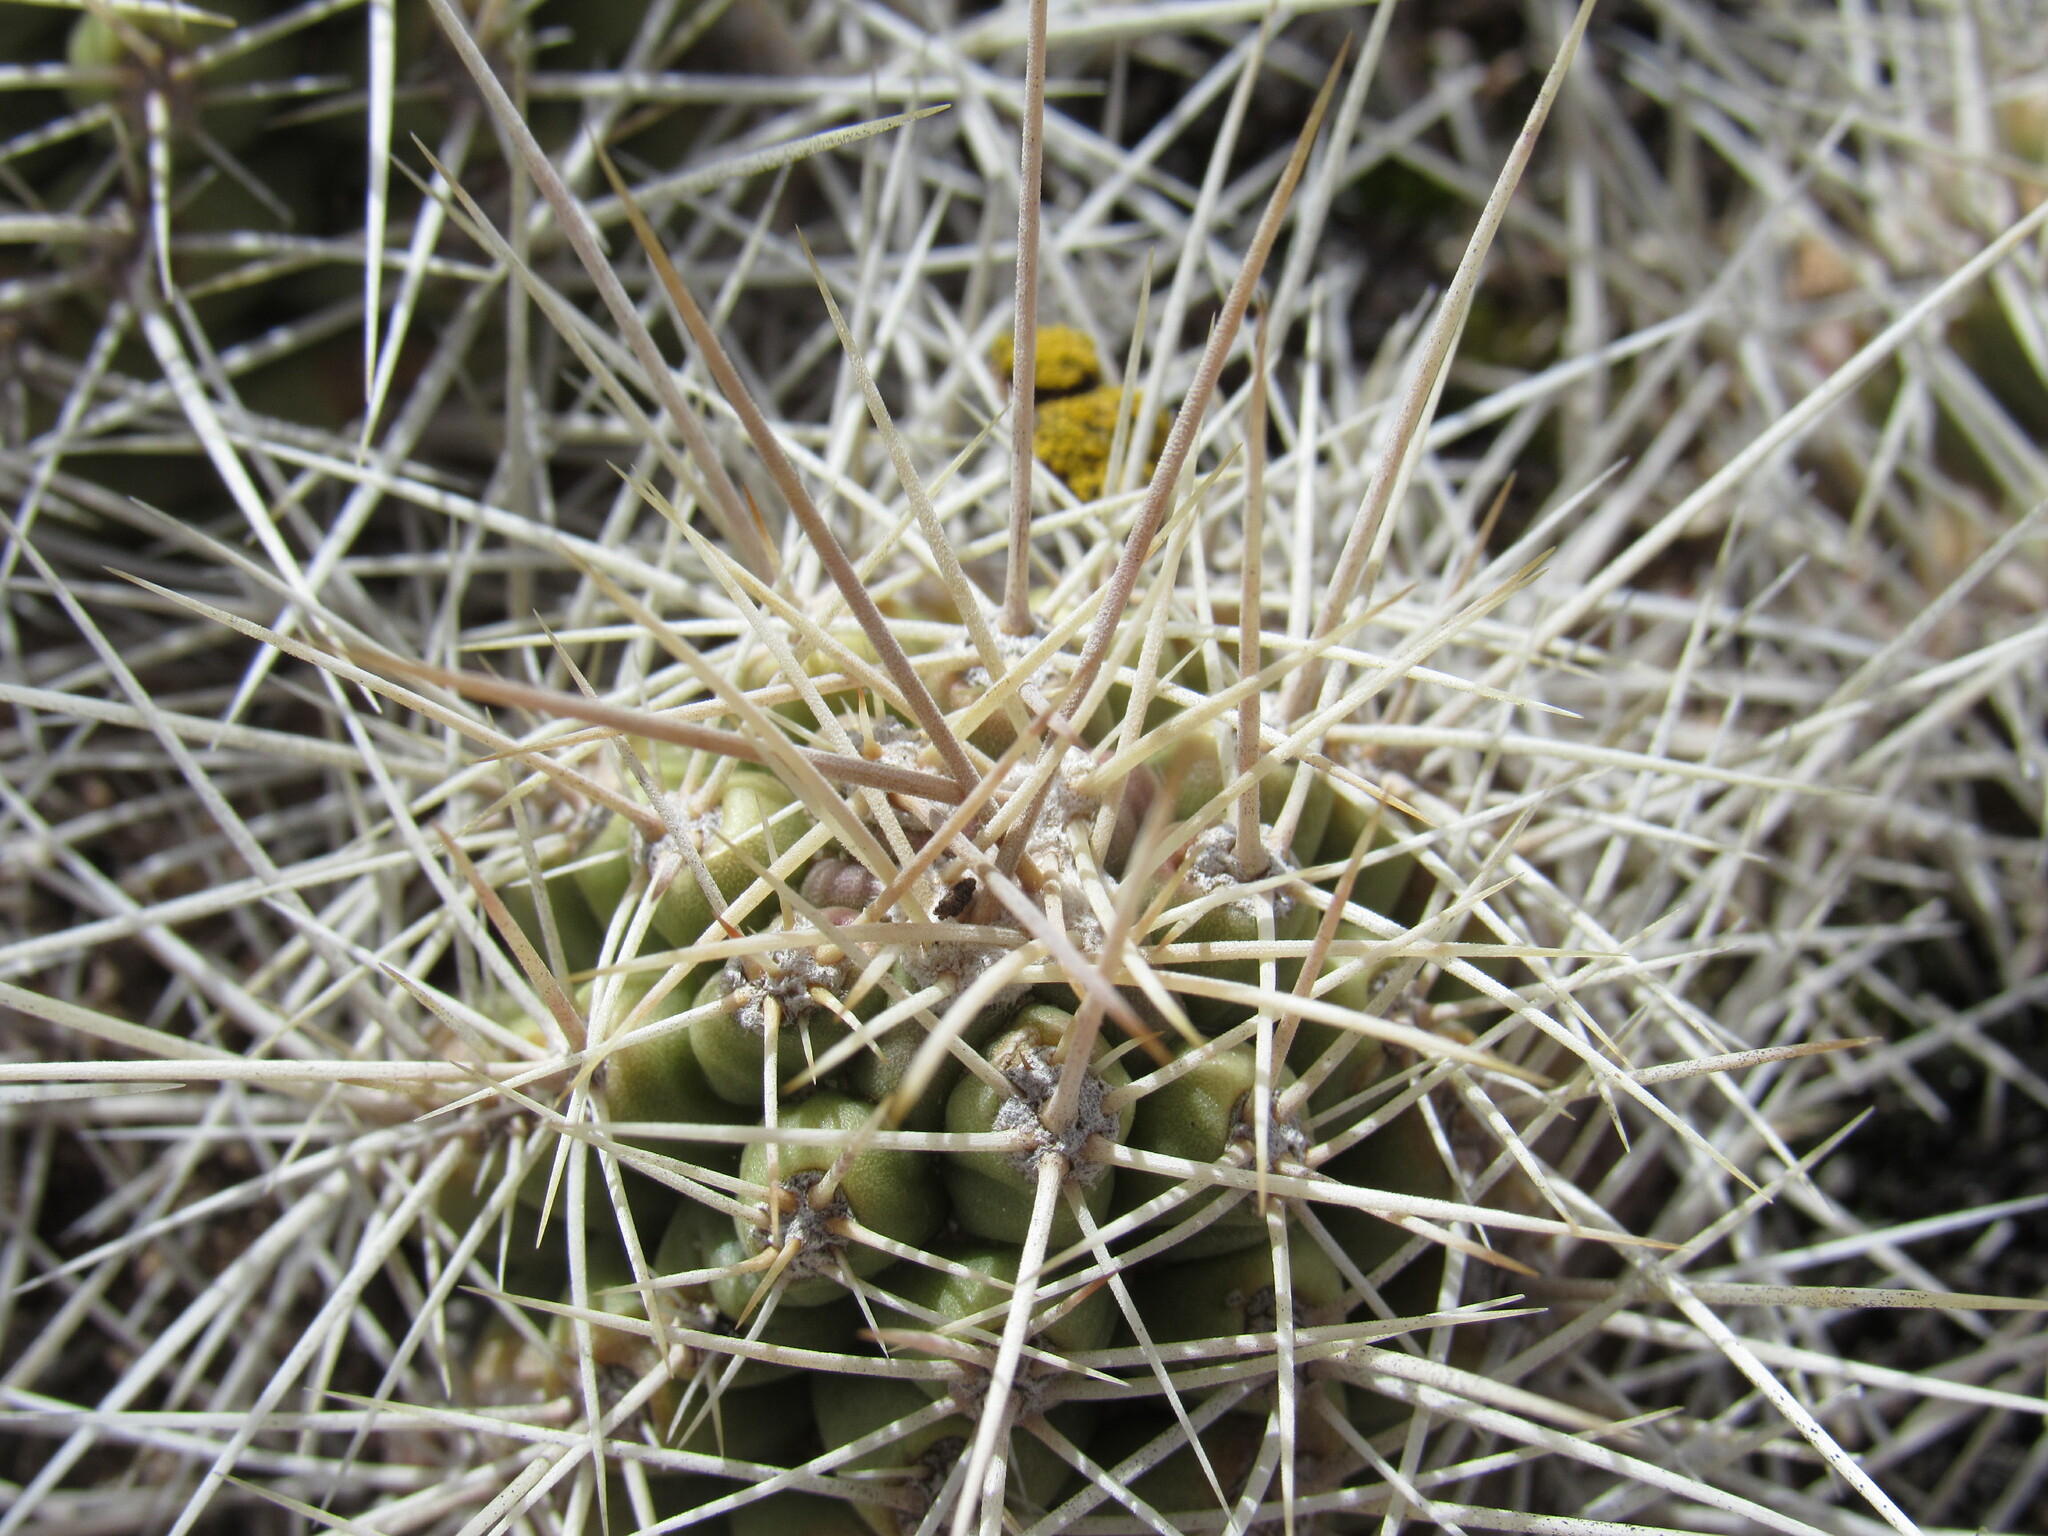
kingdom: Plantae
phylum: Tracheophyta
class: Magnoliopsida
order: Caryophyllales
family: Cactaceae
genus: Echinocereus
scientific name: Echinocereus triglochidiatus
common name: Claretcup hedgehog
